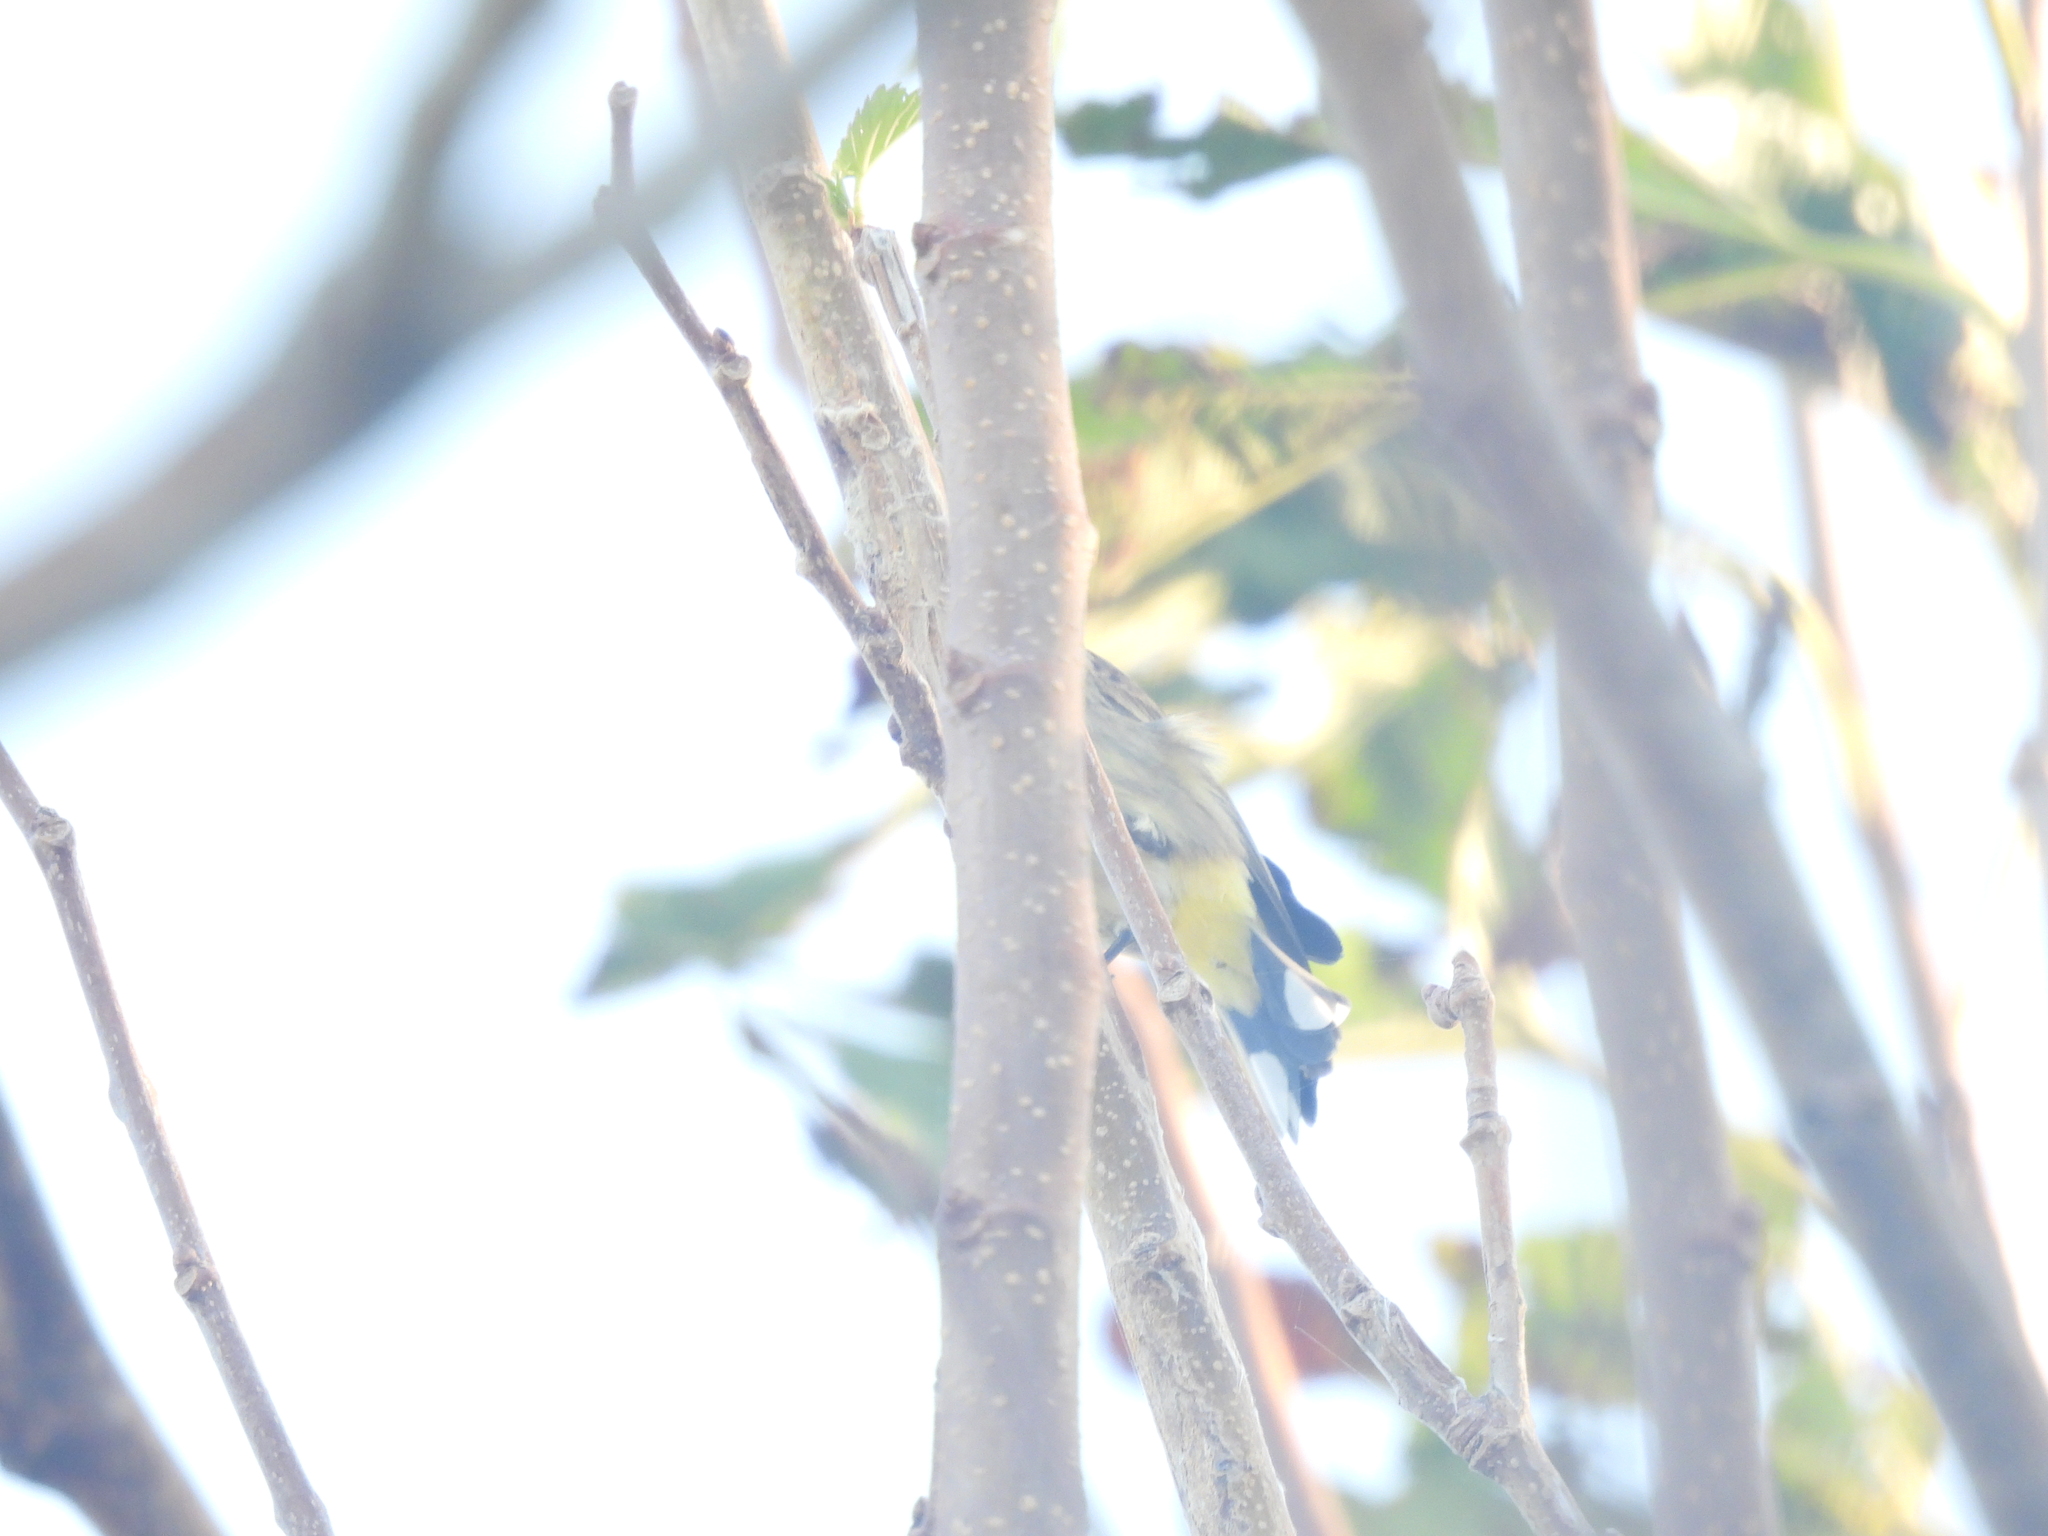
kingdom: Animalia
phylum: Chordata
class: Aves
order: Passeriformes
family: Parulidae
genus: Setophaga
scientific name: Setophaga palmarum
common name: Palm warbler
